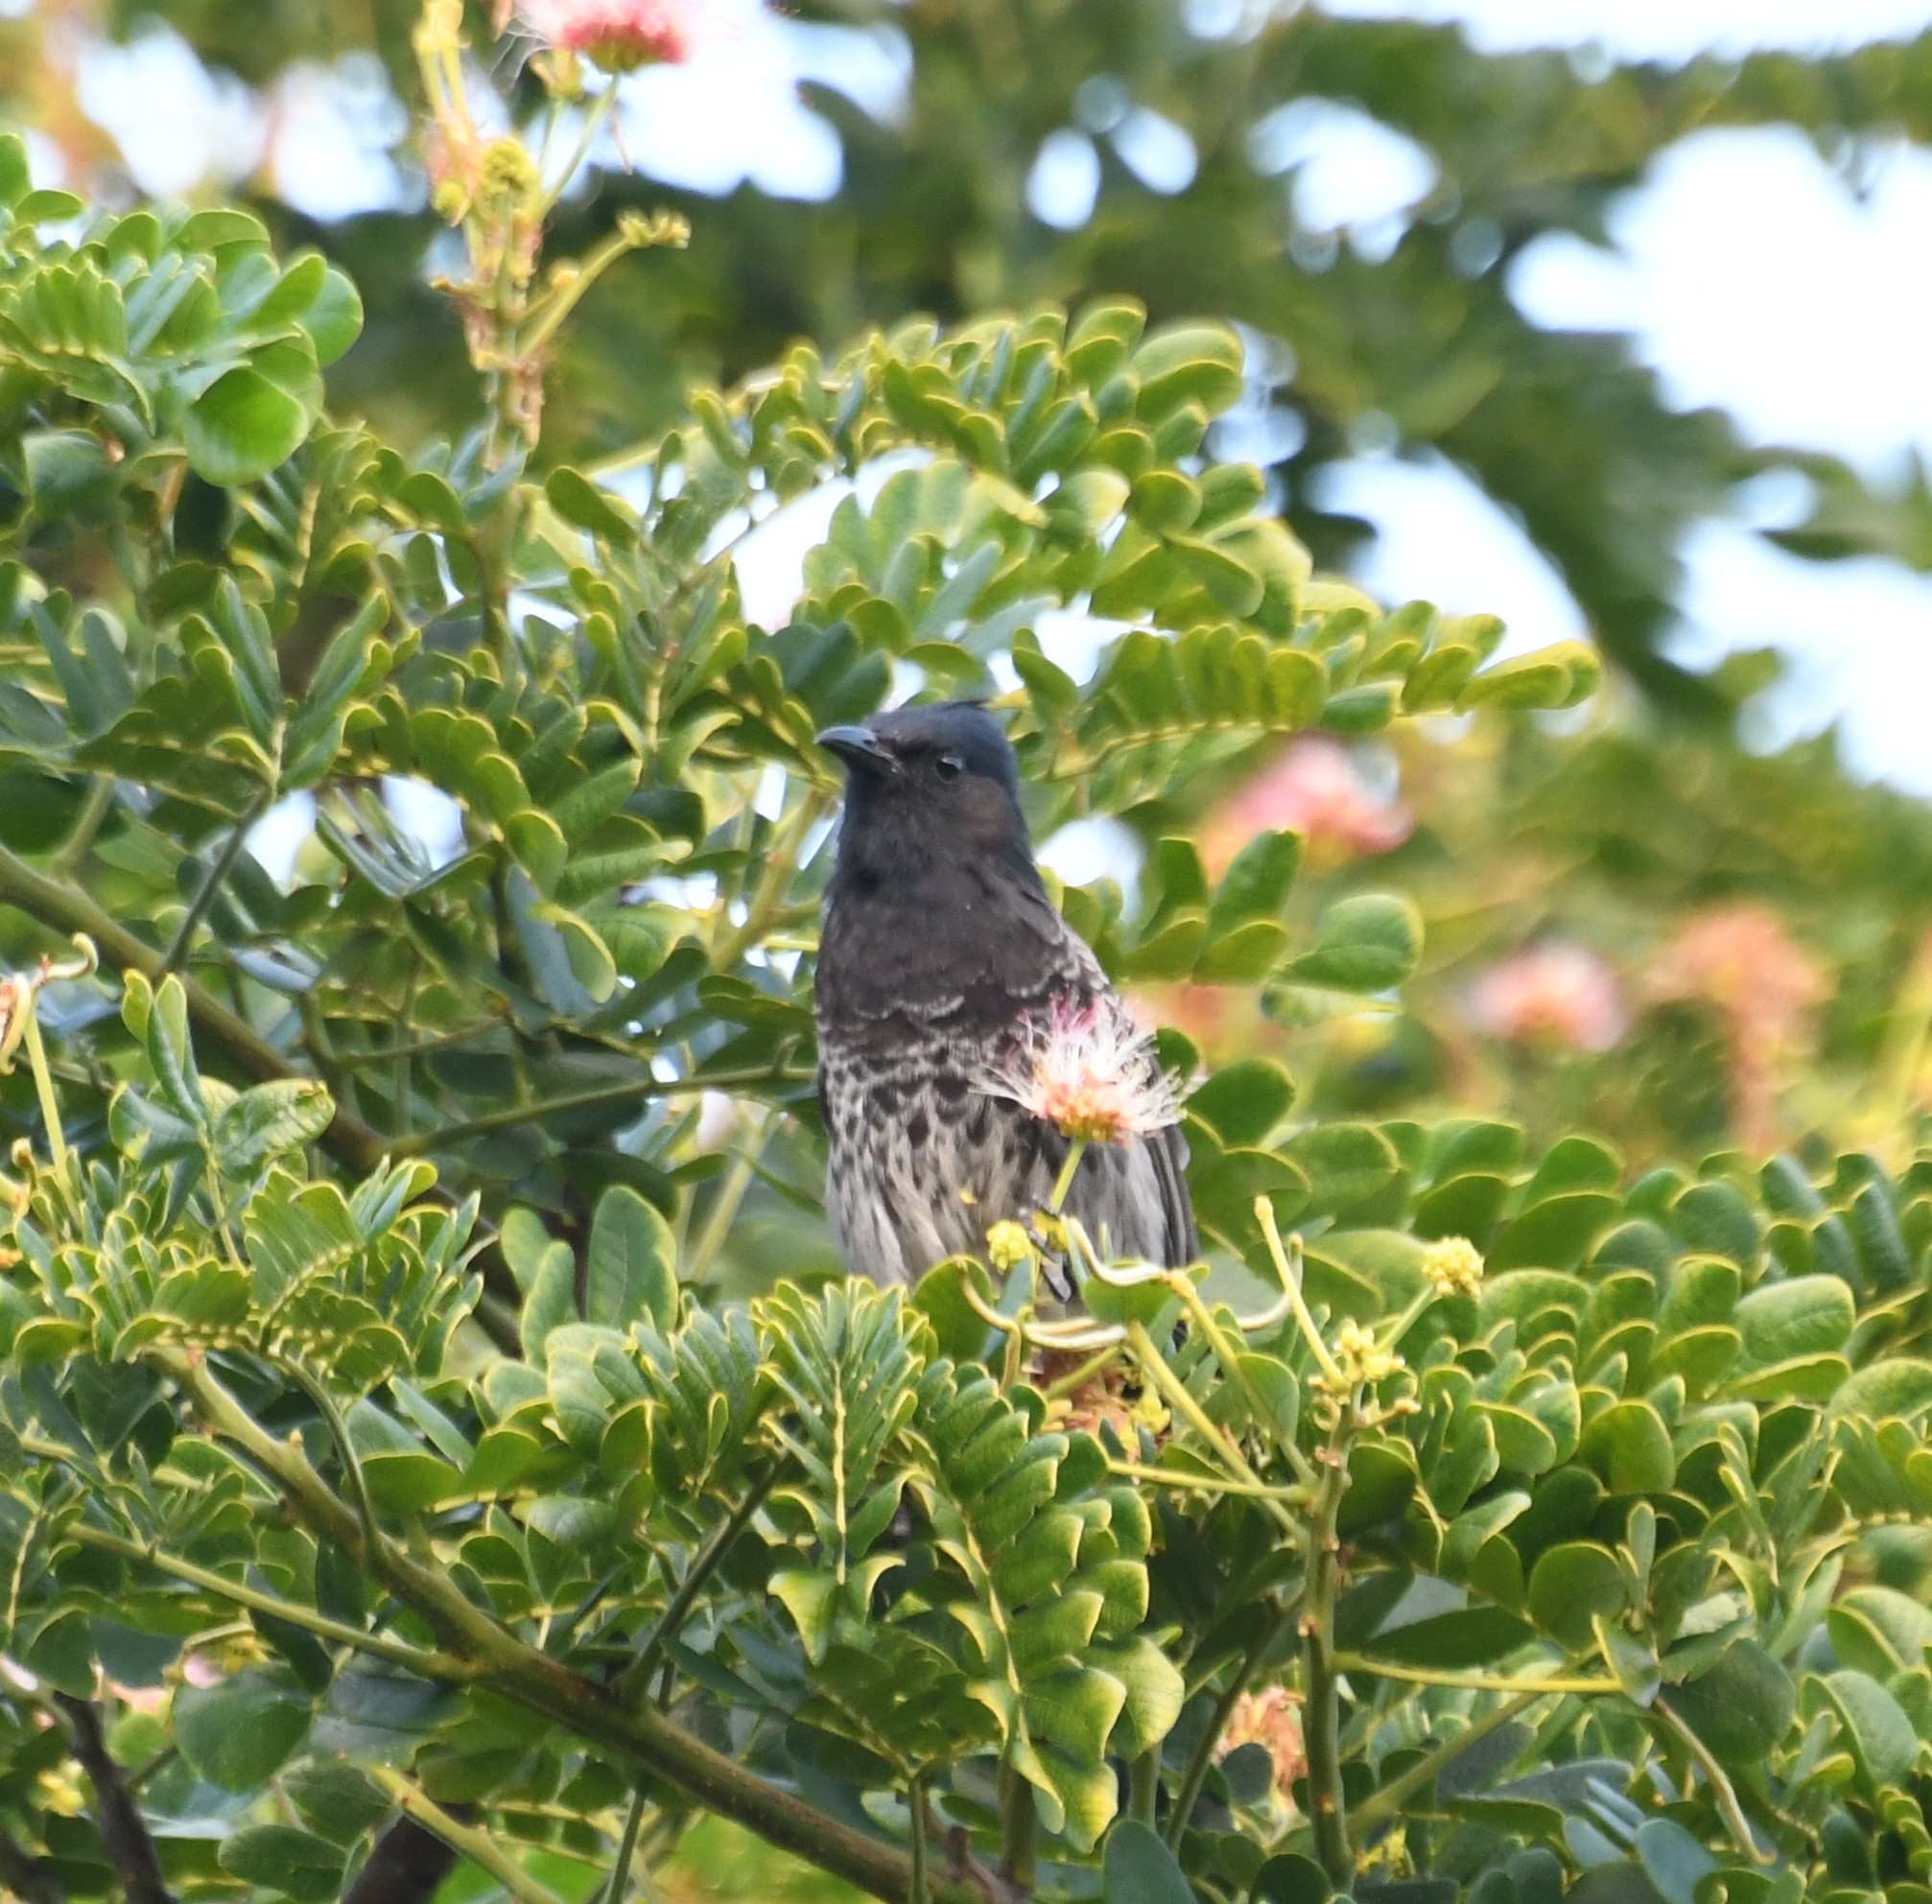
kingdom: Animalia
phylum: Chordata
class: Aves
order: Passeriformes
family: Pycnonotidae
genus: Pycnonotus
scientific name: Pycnonotus cafer
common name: Red-vented bulbul
